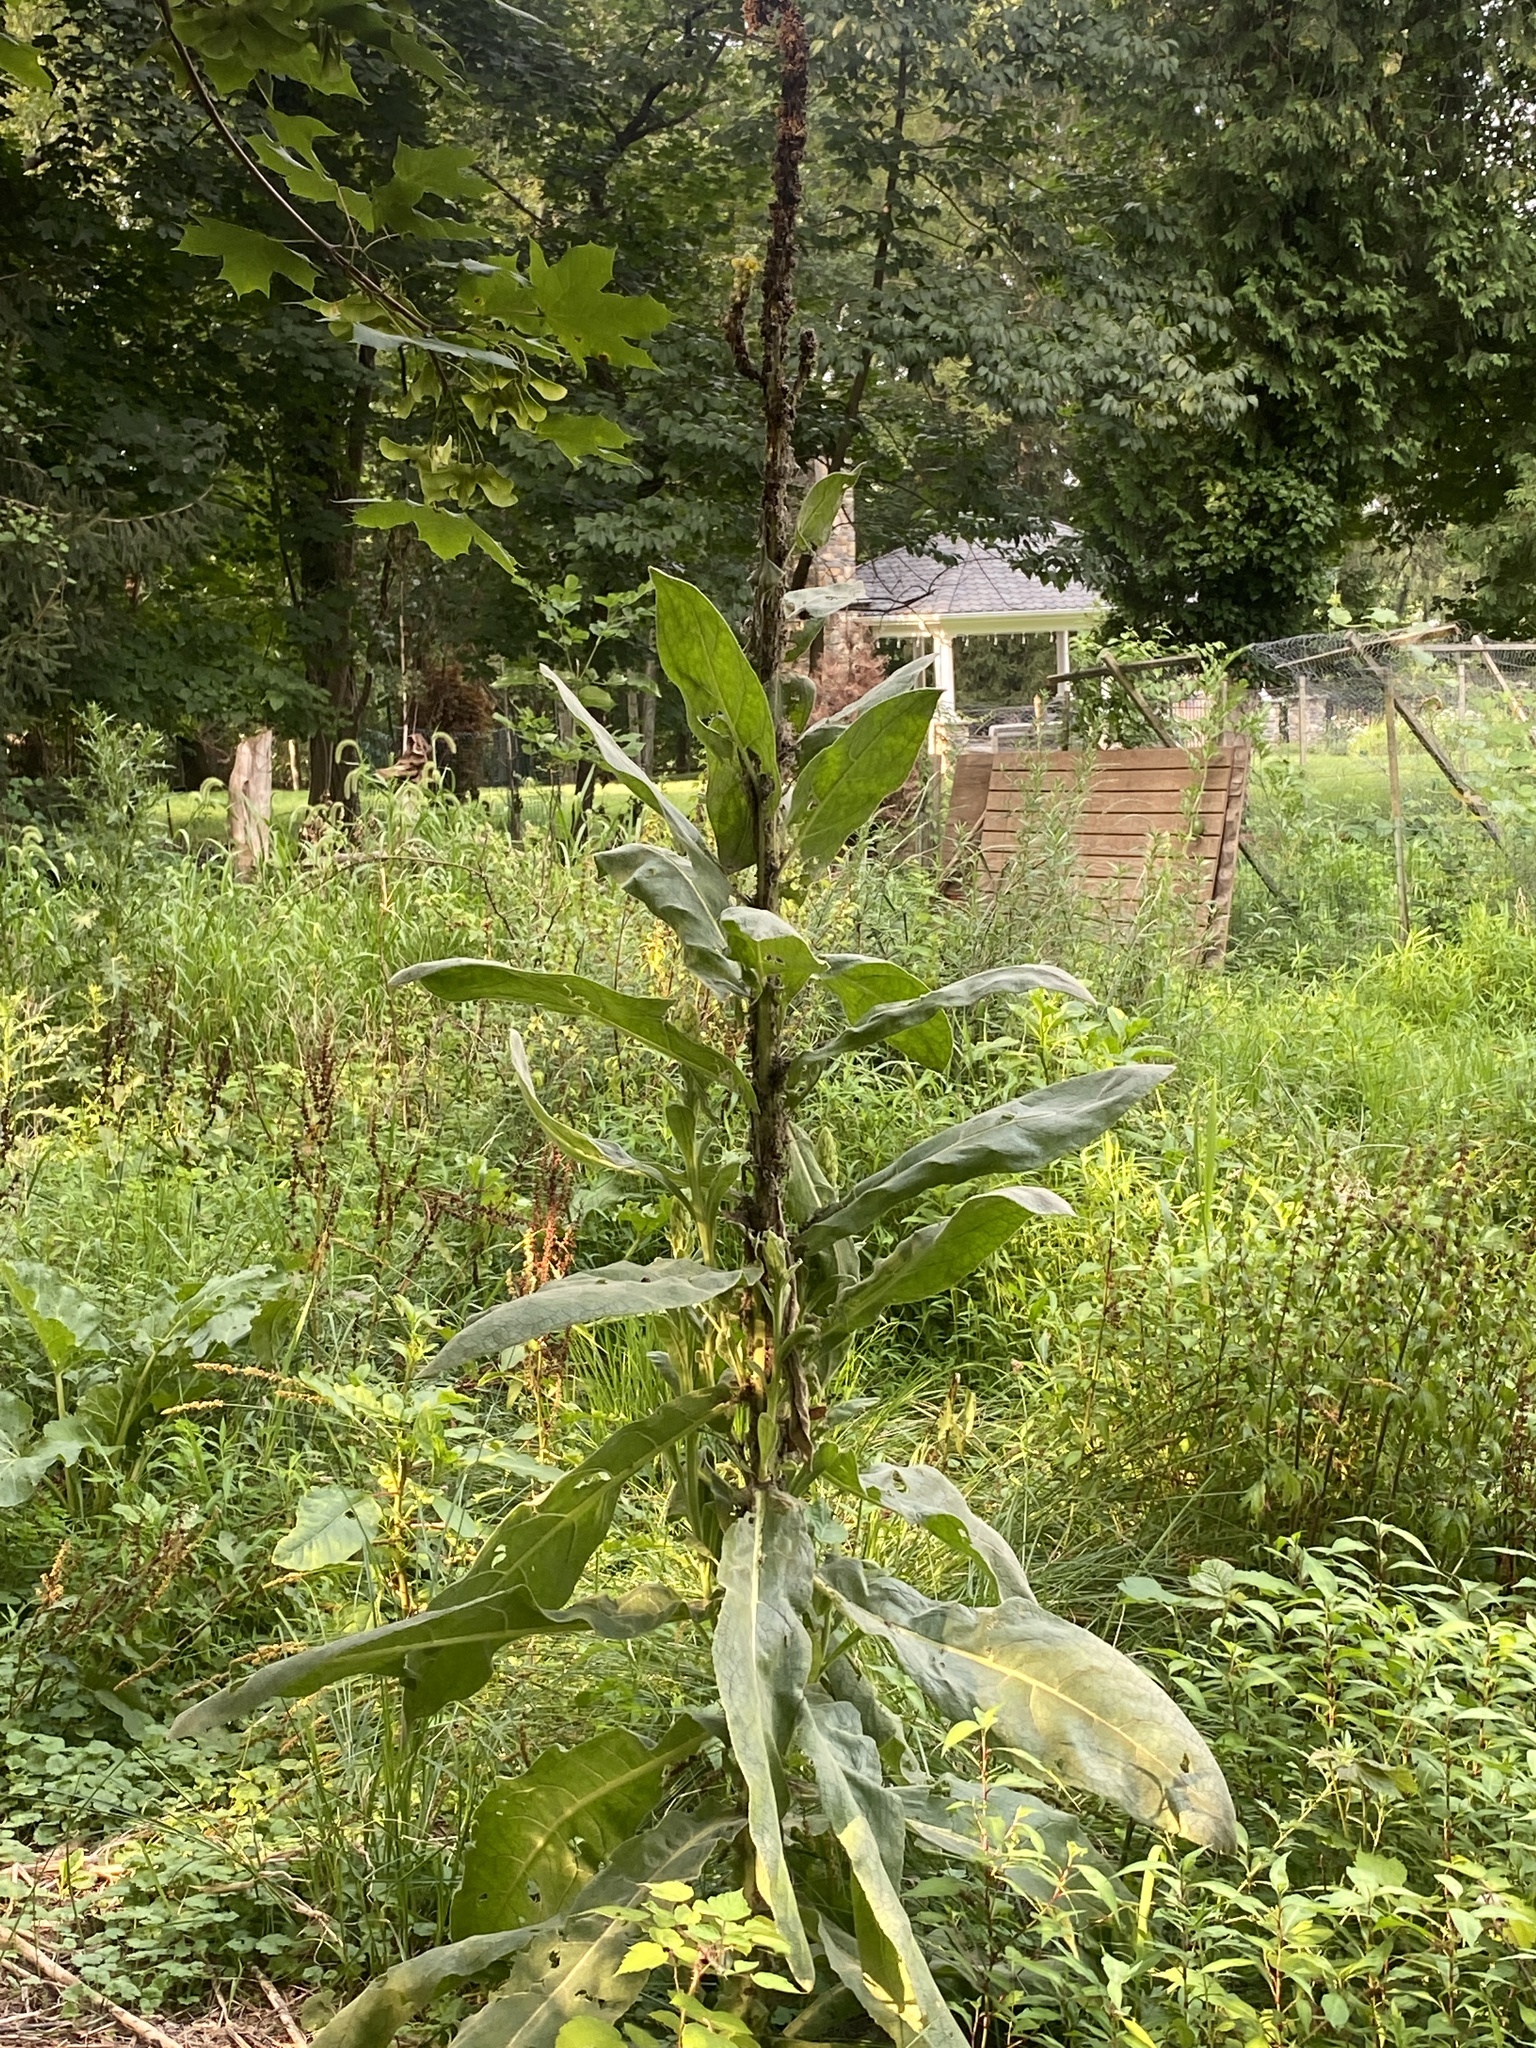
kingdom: Plantae
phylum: Tracheophyta
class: Magnoliopsida
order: Lamiales
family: Scrophulariaceae
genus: Verbascum
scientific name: Verbascum thapsus
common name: Common mullein
